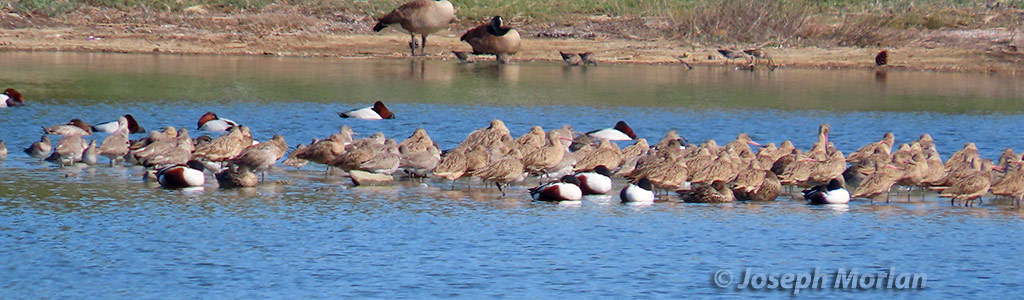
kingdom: Animalia
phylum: Chordata
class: Aves
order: Charadriiformes
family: Scolopacidae
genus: Limosa
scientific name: Limosa fedoa
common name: Marbled godwit
